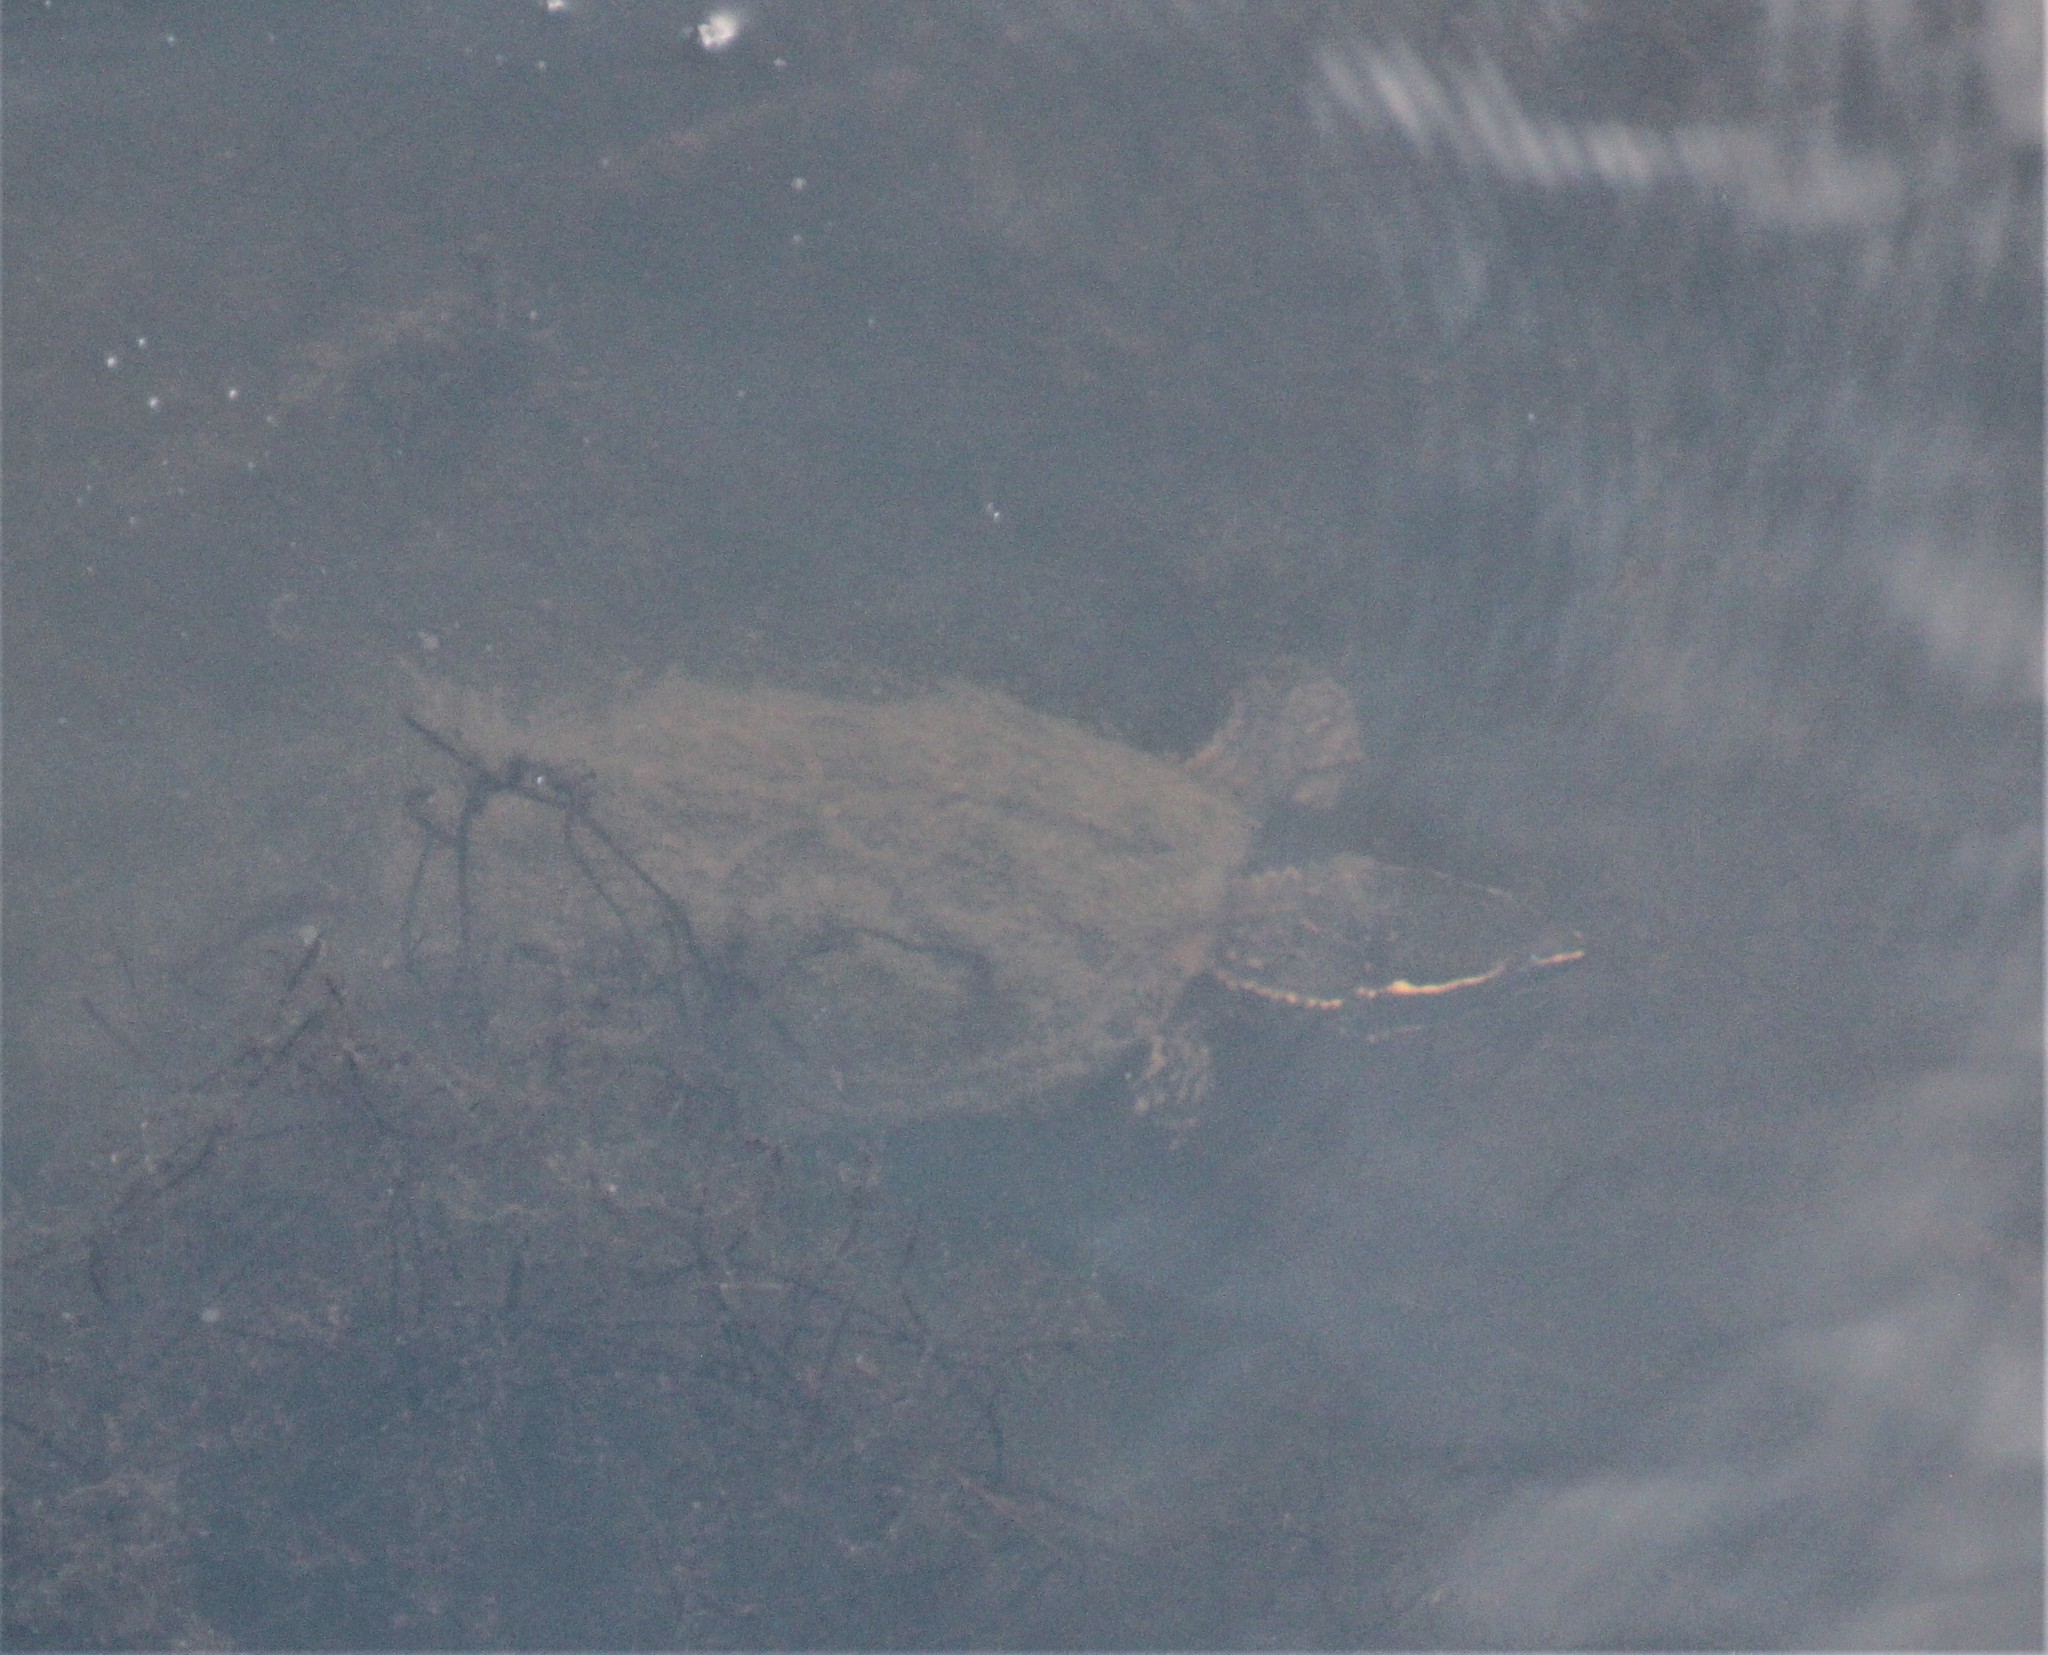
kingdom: Animalia
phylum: Chordata
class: Testudines
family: Kinosternidae
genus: Sternotherus
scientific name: Sternotherus odoratus
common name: Common musk turtle
